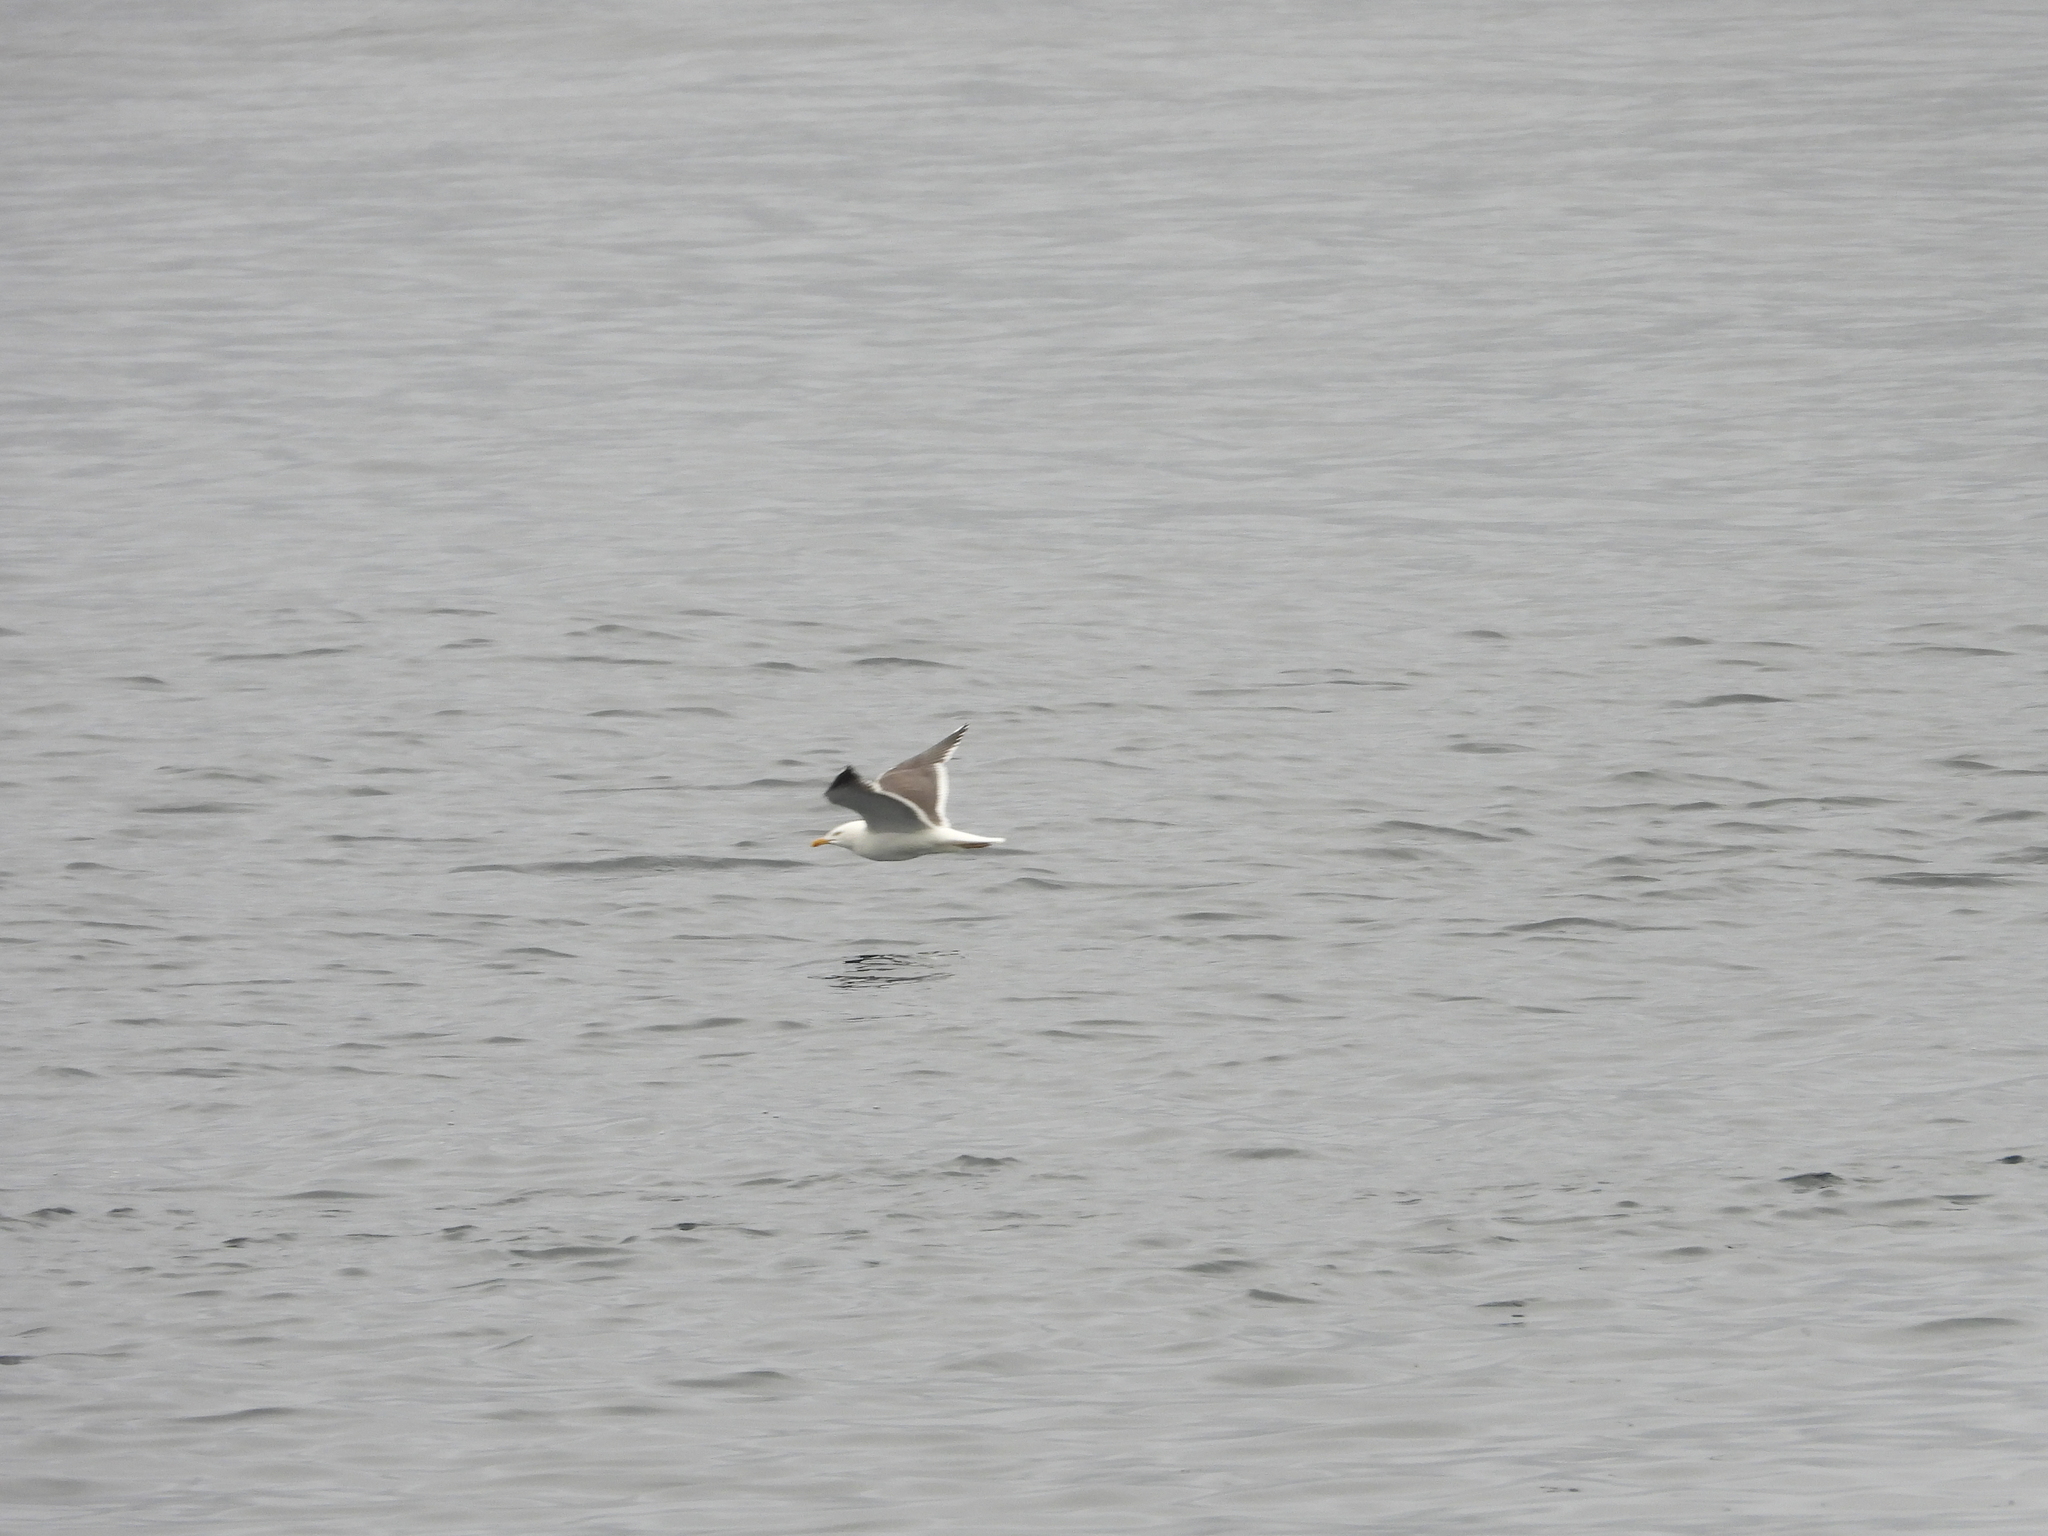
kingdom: Animalia
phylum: Chordata
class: Aves
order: Charadriiformes
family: Laridae
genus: Larus
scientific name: Larus fuscus
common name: Lesser black-backed gull
